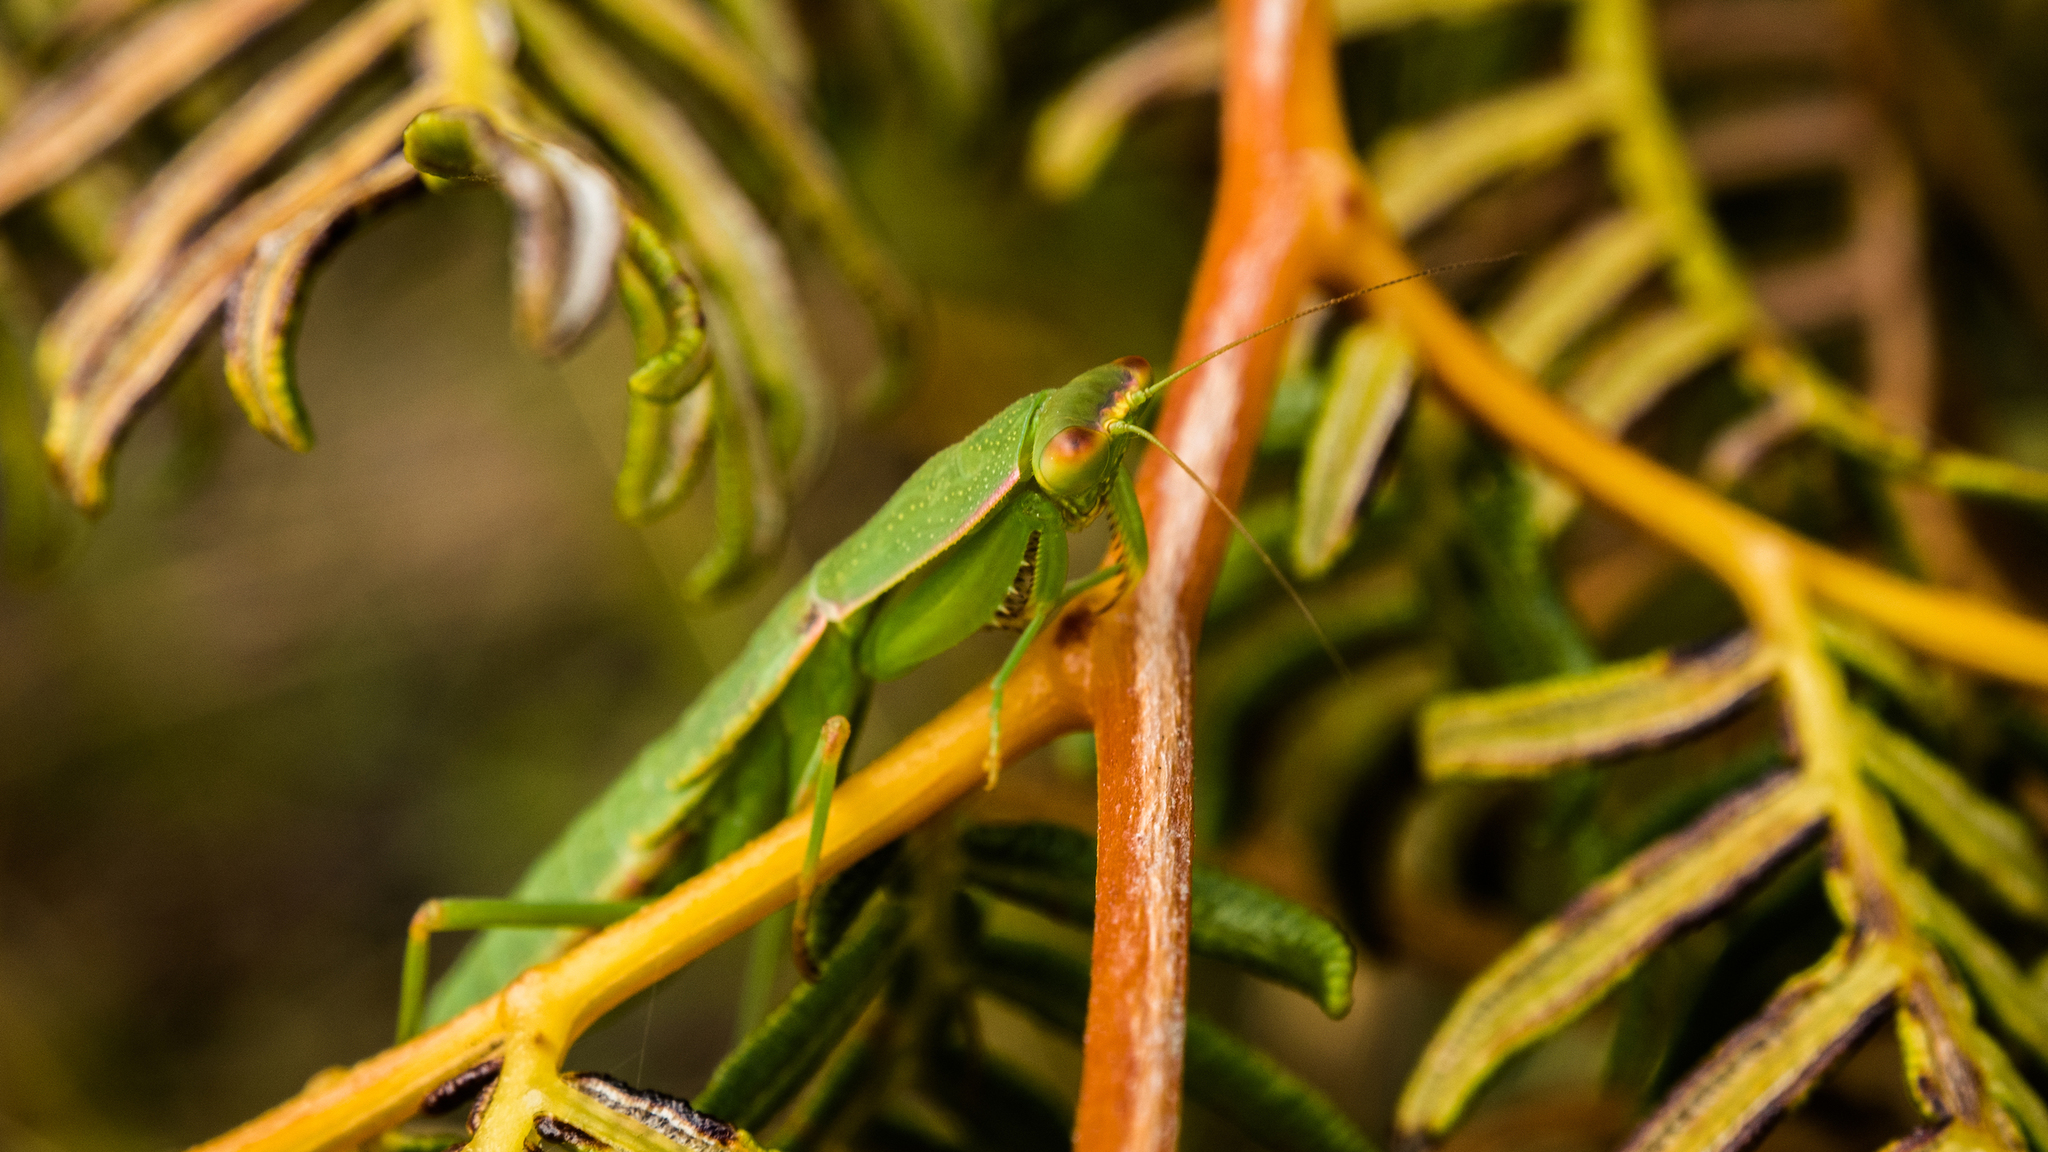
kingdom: Animalia
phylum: Arthropoda
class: Insecta
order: Mantodea
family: Mantidae
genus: Orthodera
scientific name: Orthodera novaezealandiae
